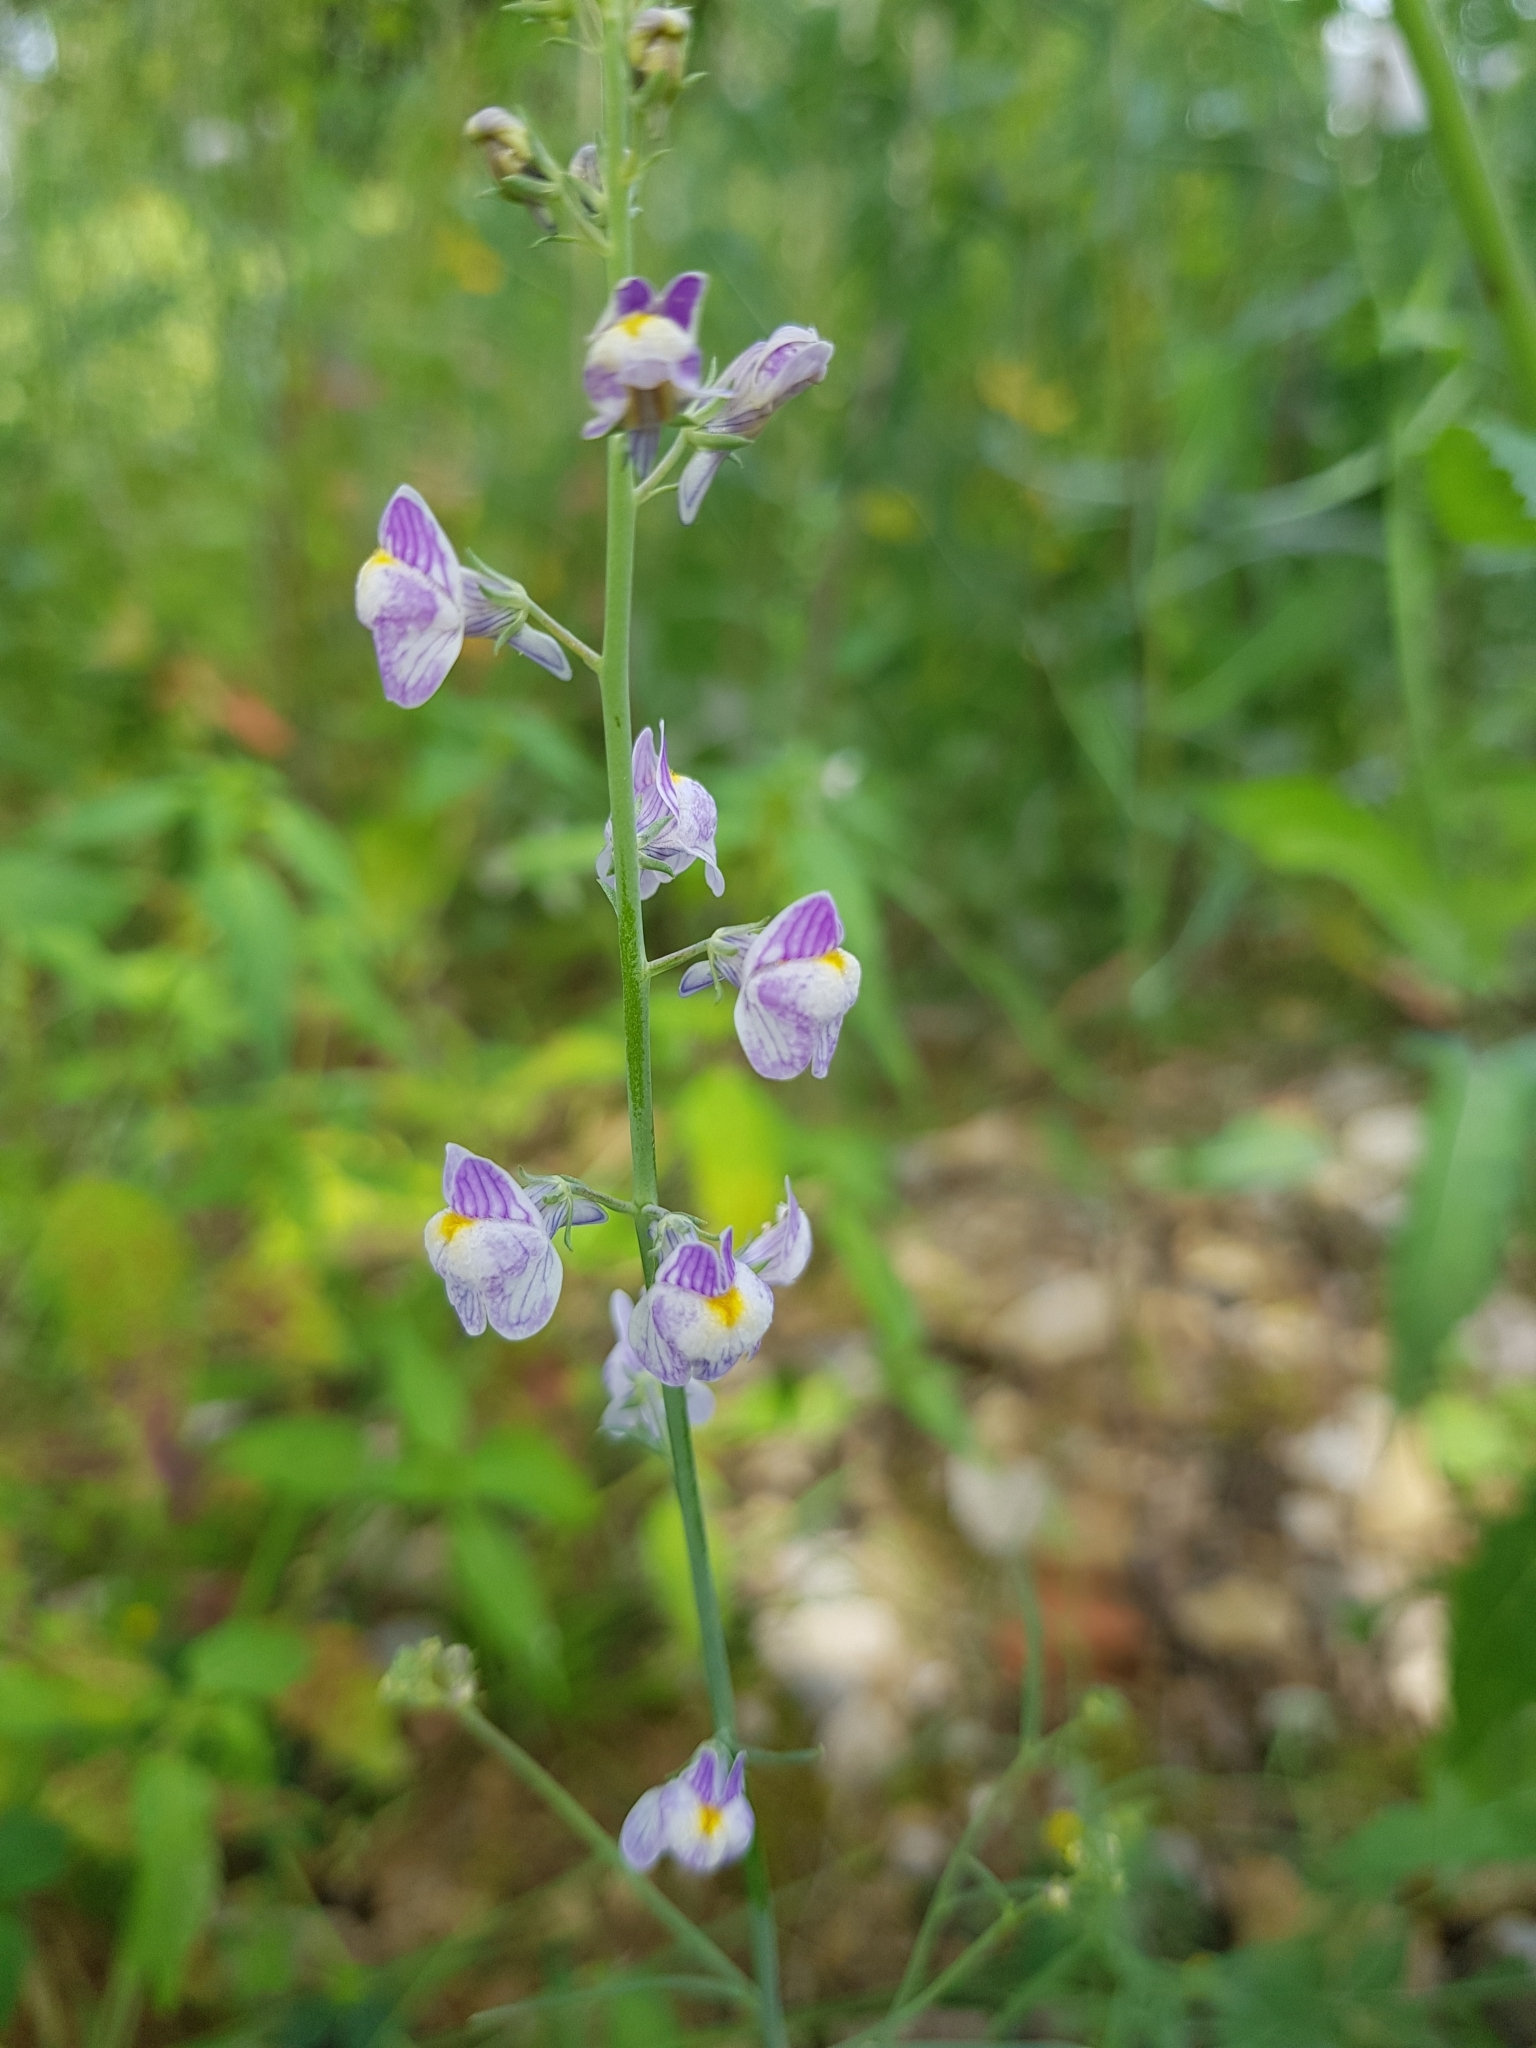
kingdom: Plantae
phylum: Tracheophyta
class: Magnoliopsida
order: Lamiales
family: Plantaginaceae
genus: Linaria
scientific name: Linaria repens
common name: Pale toadflax
